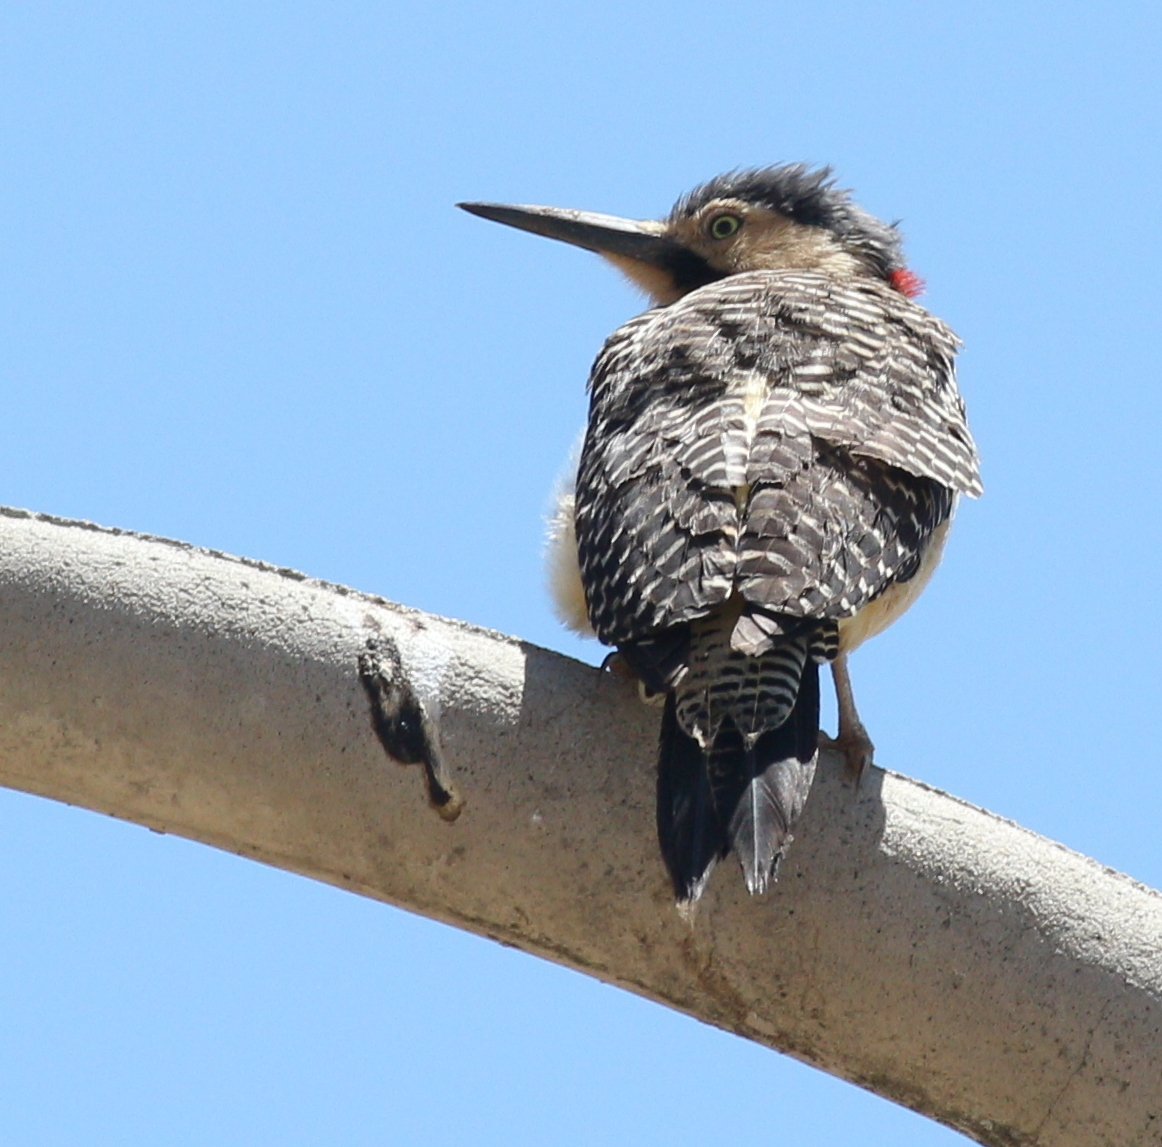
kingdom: Animalia
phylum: Chordata
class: Aves
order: Piciformes
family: Picidae
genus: Colaptes
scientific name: Colaptes rupicola
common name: Andean flicker
